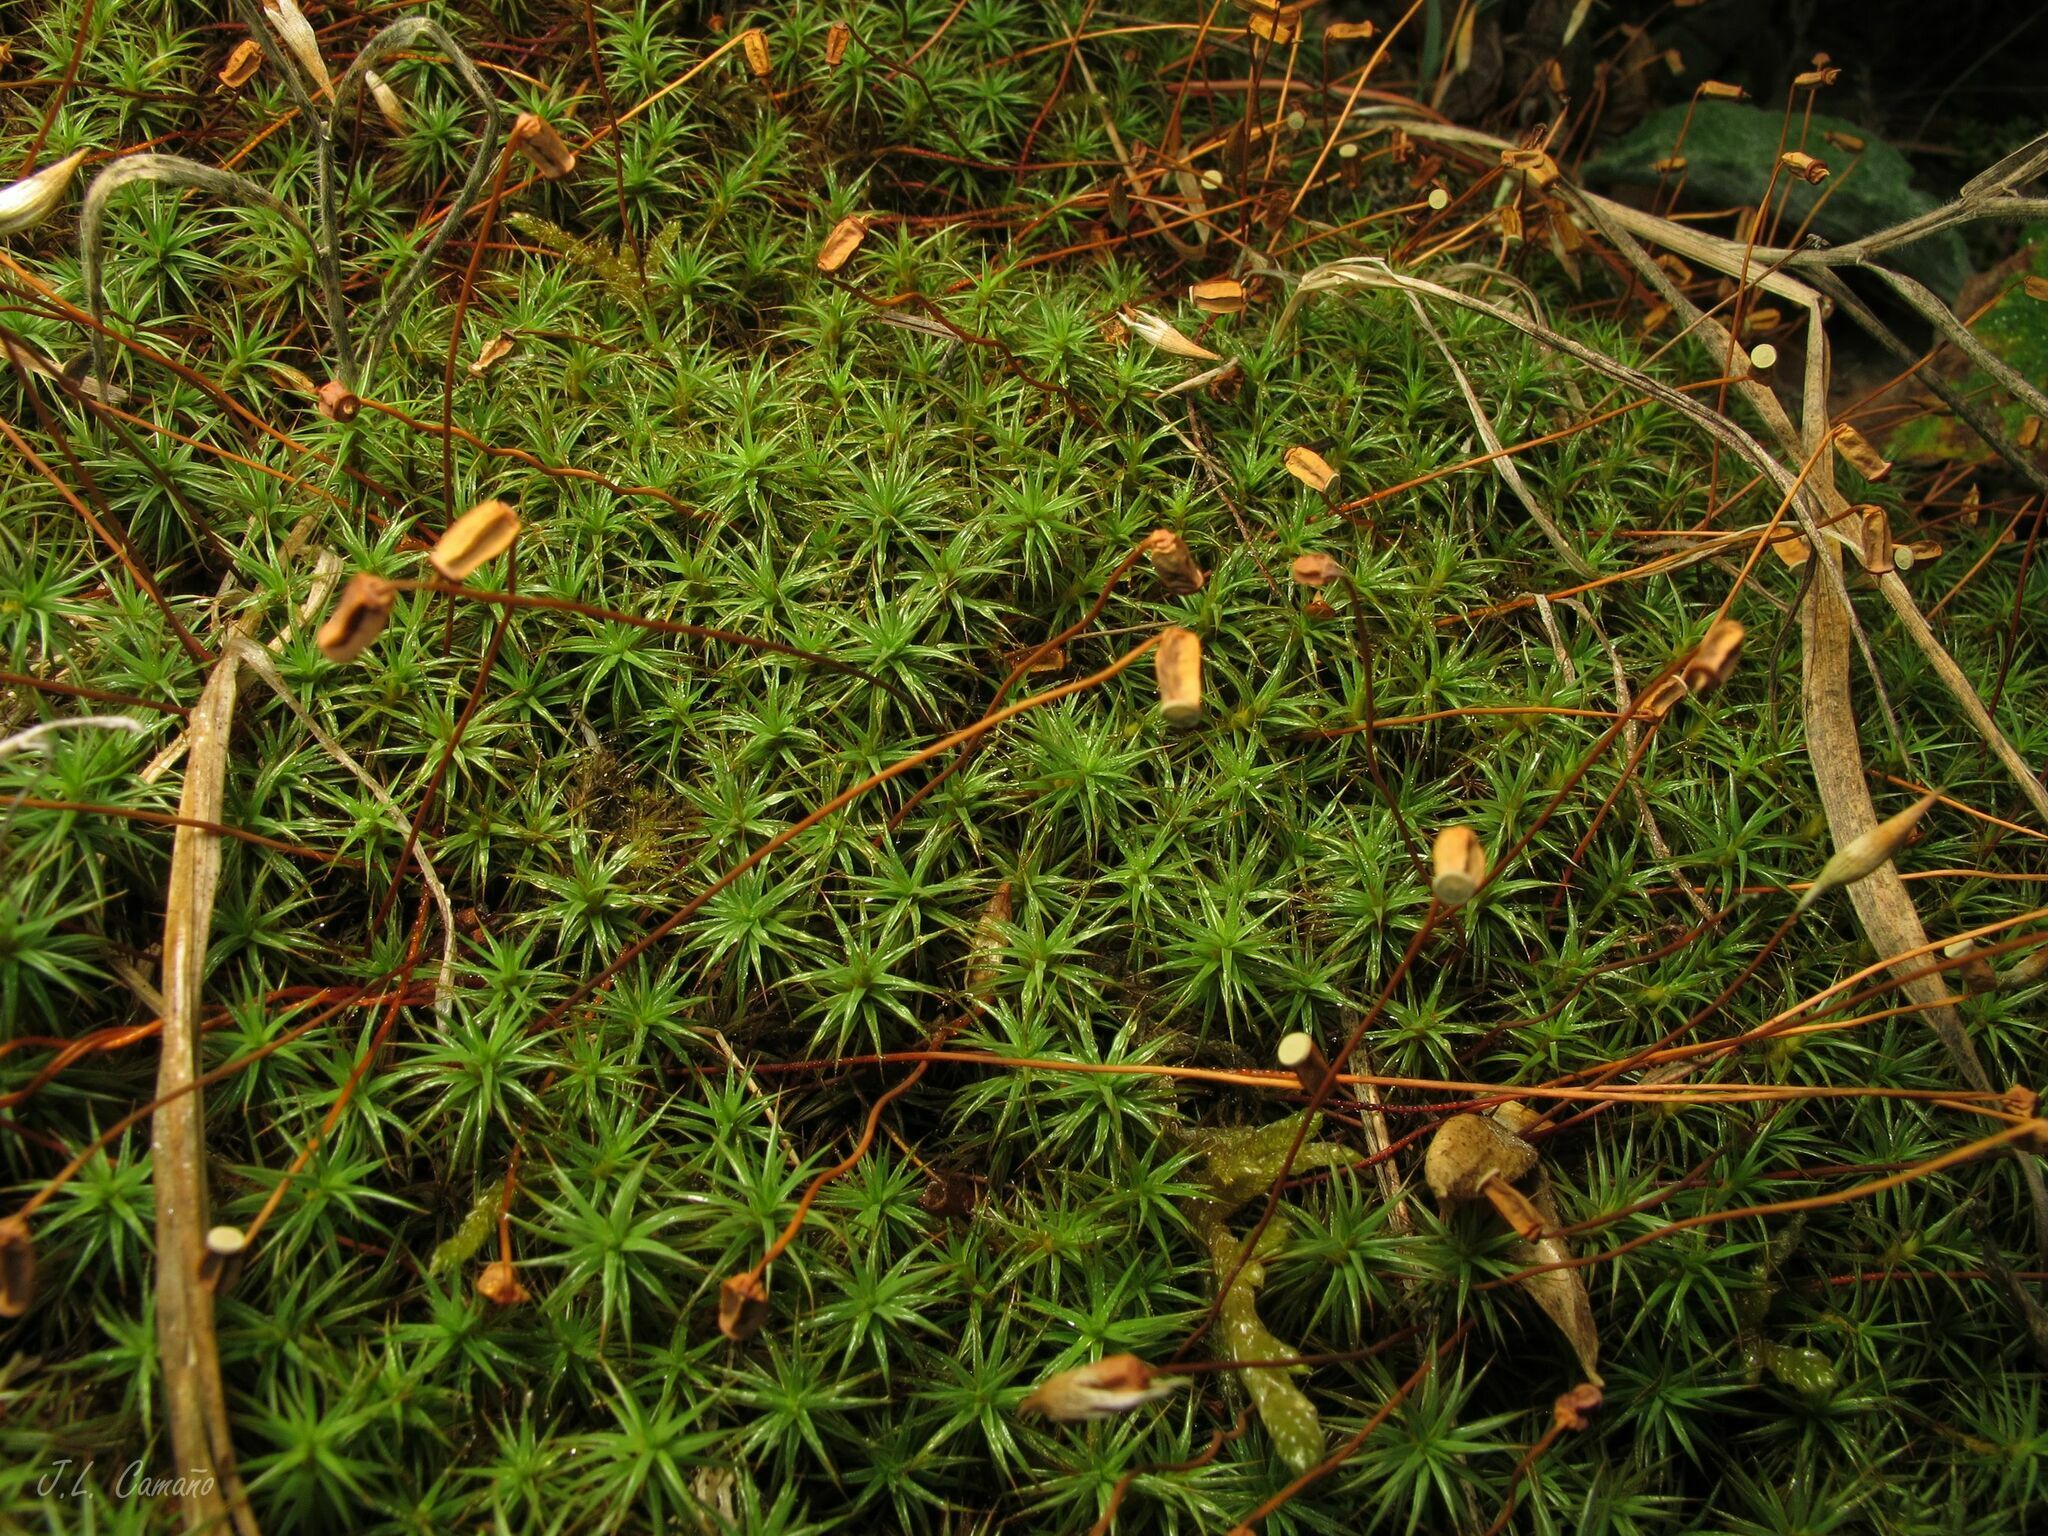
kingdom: Plantae
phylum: Bryophyta
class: Polytrichopsida
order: Polytrichales
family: Polytrichaceae
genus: Polytrichum
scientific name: Polytrichum juniperinum
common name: Juniper haircap moss
